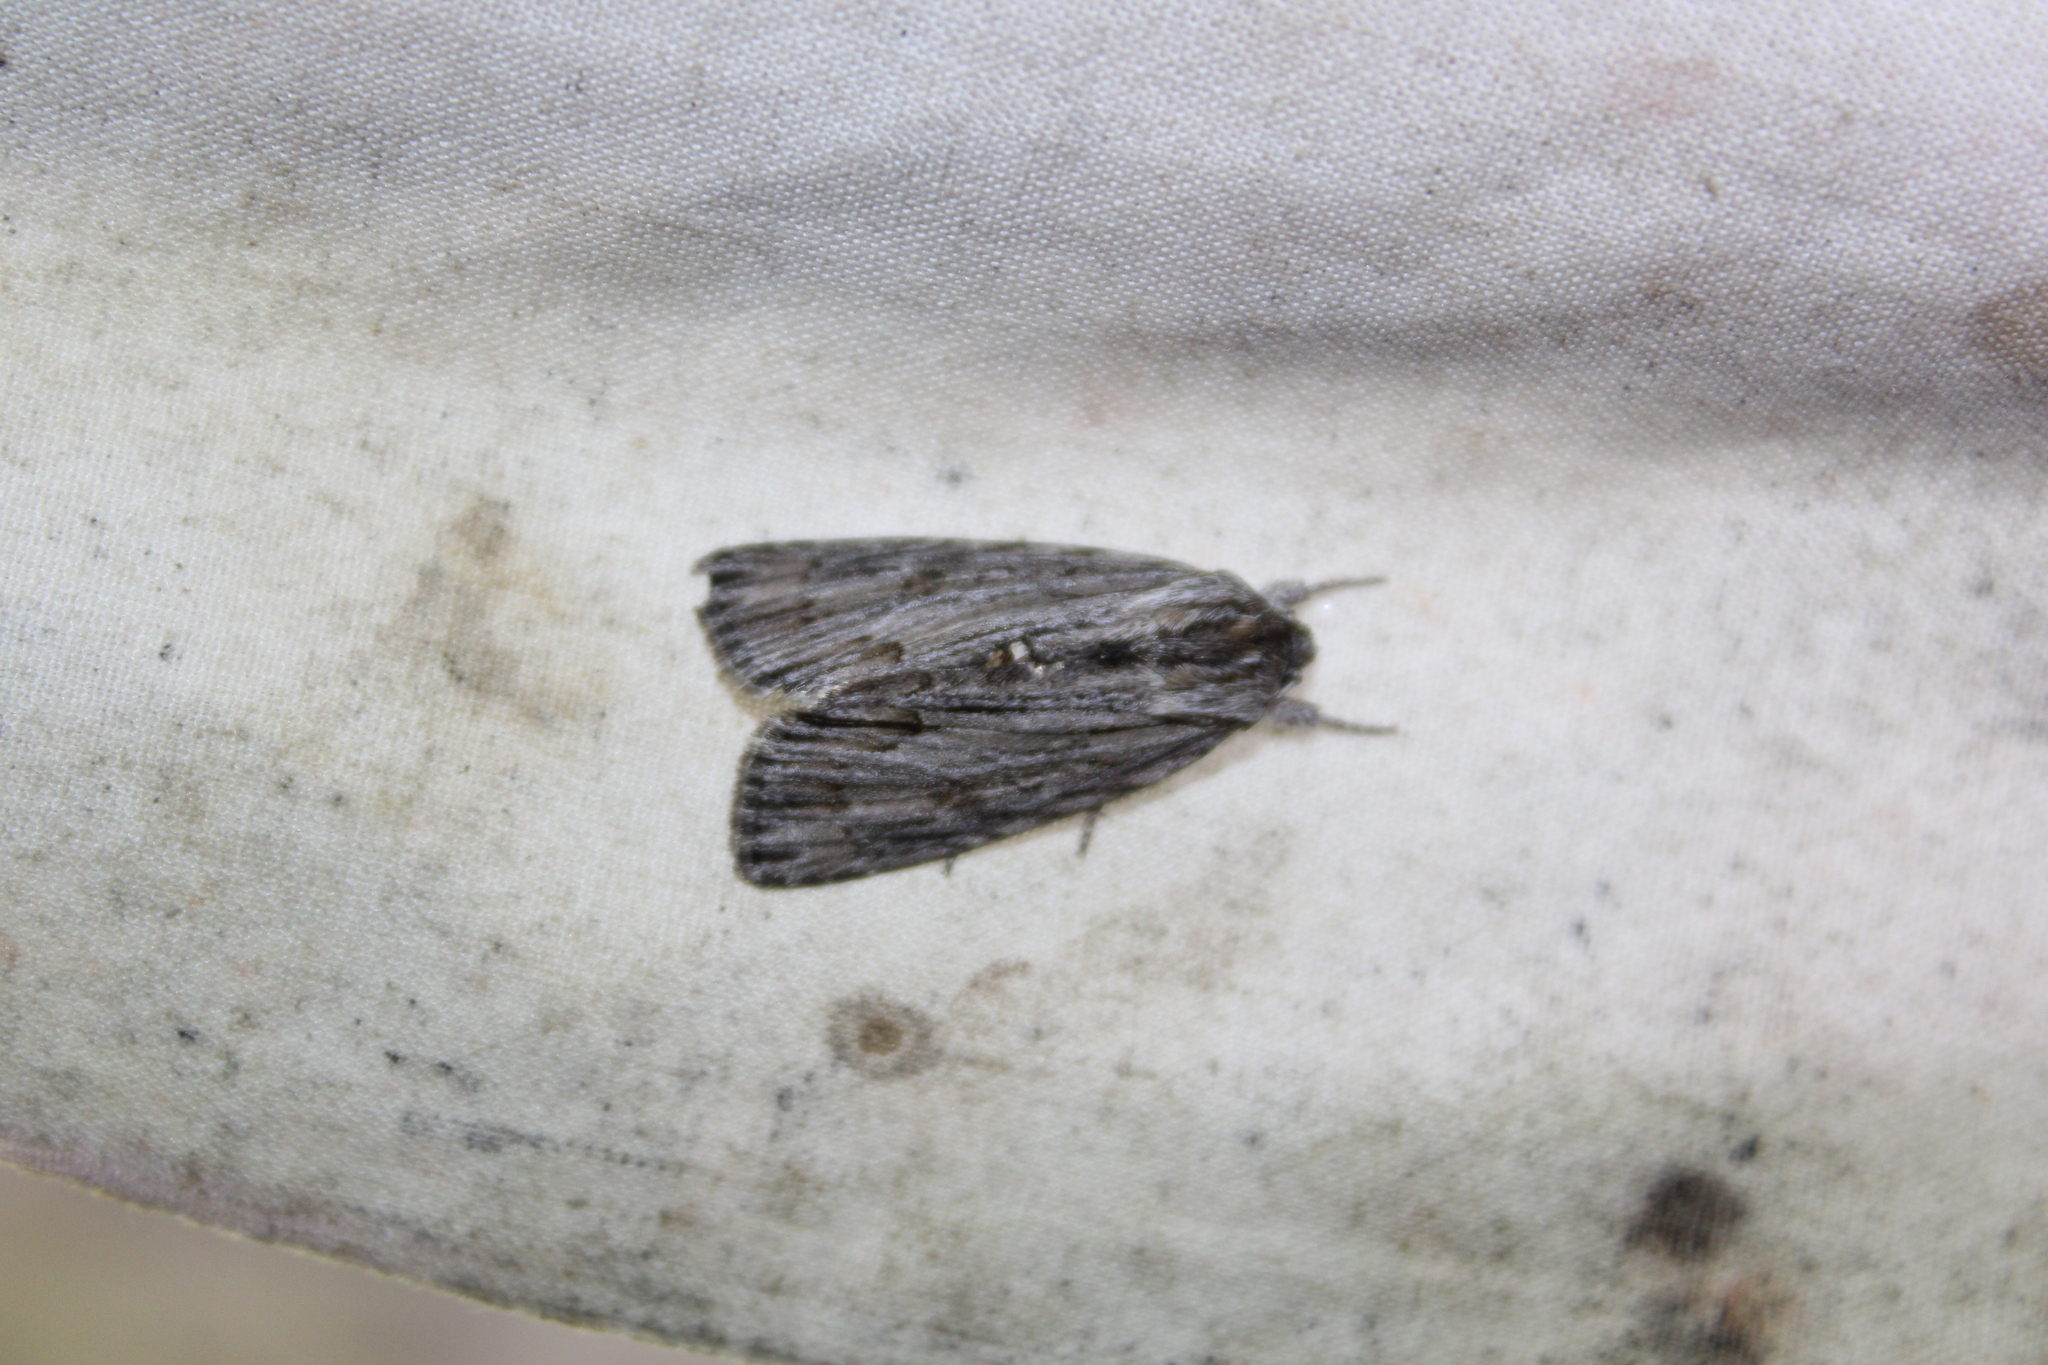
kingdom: Animalia
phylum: Arthropoda
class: Insecta
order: Lepidoptera
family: Noctuidae
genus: Acronicta
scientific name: Acronicta lithospila
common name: Streaked dagger
